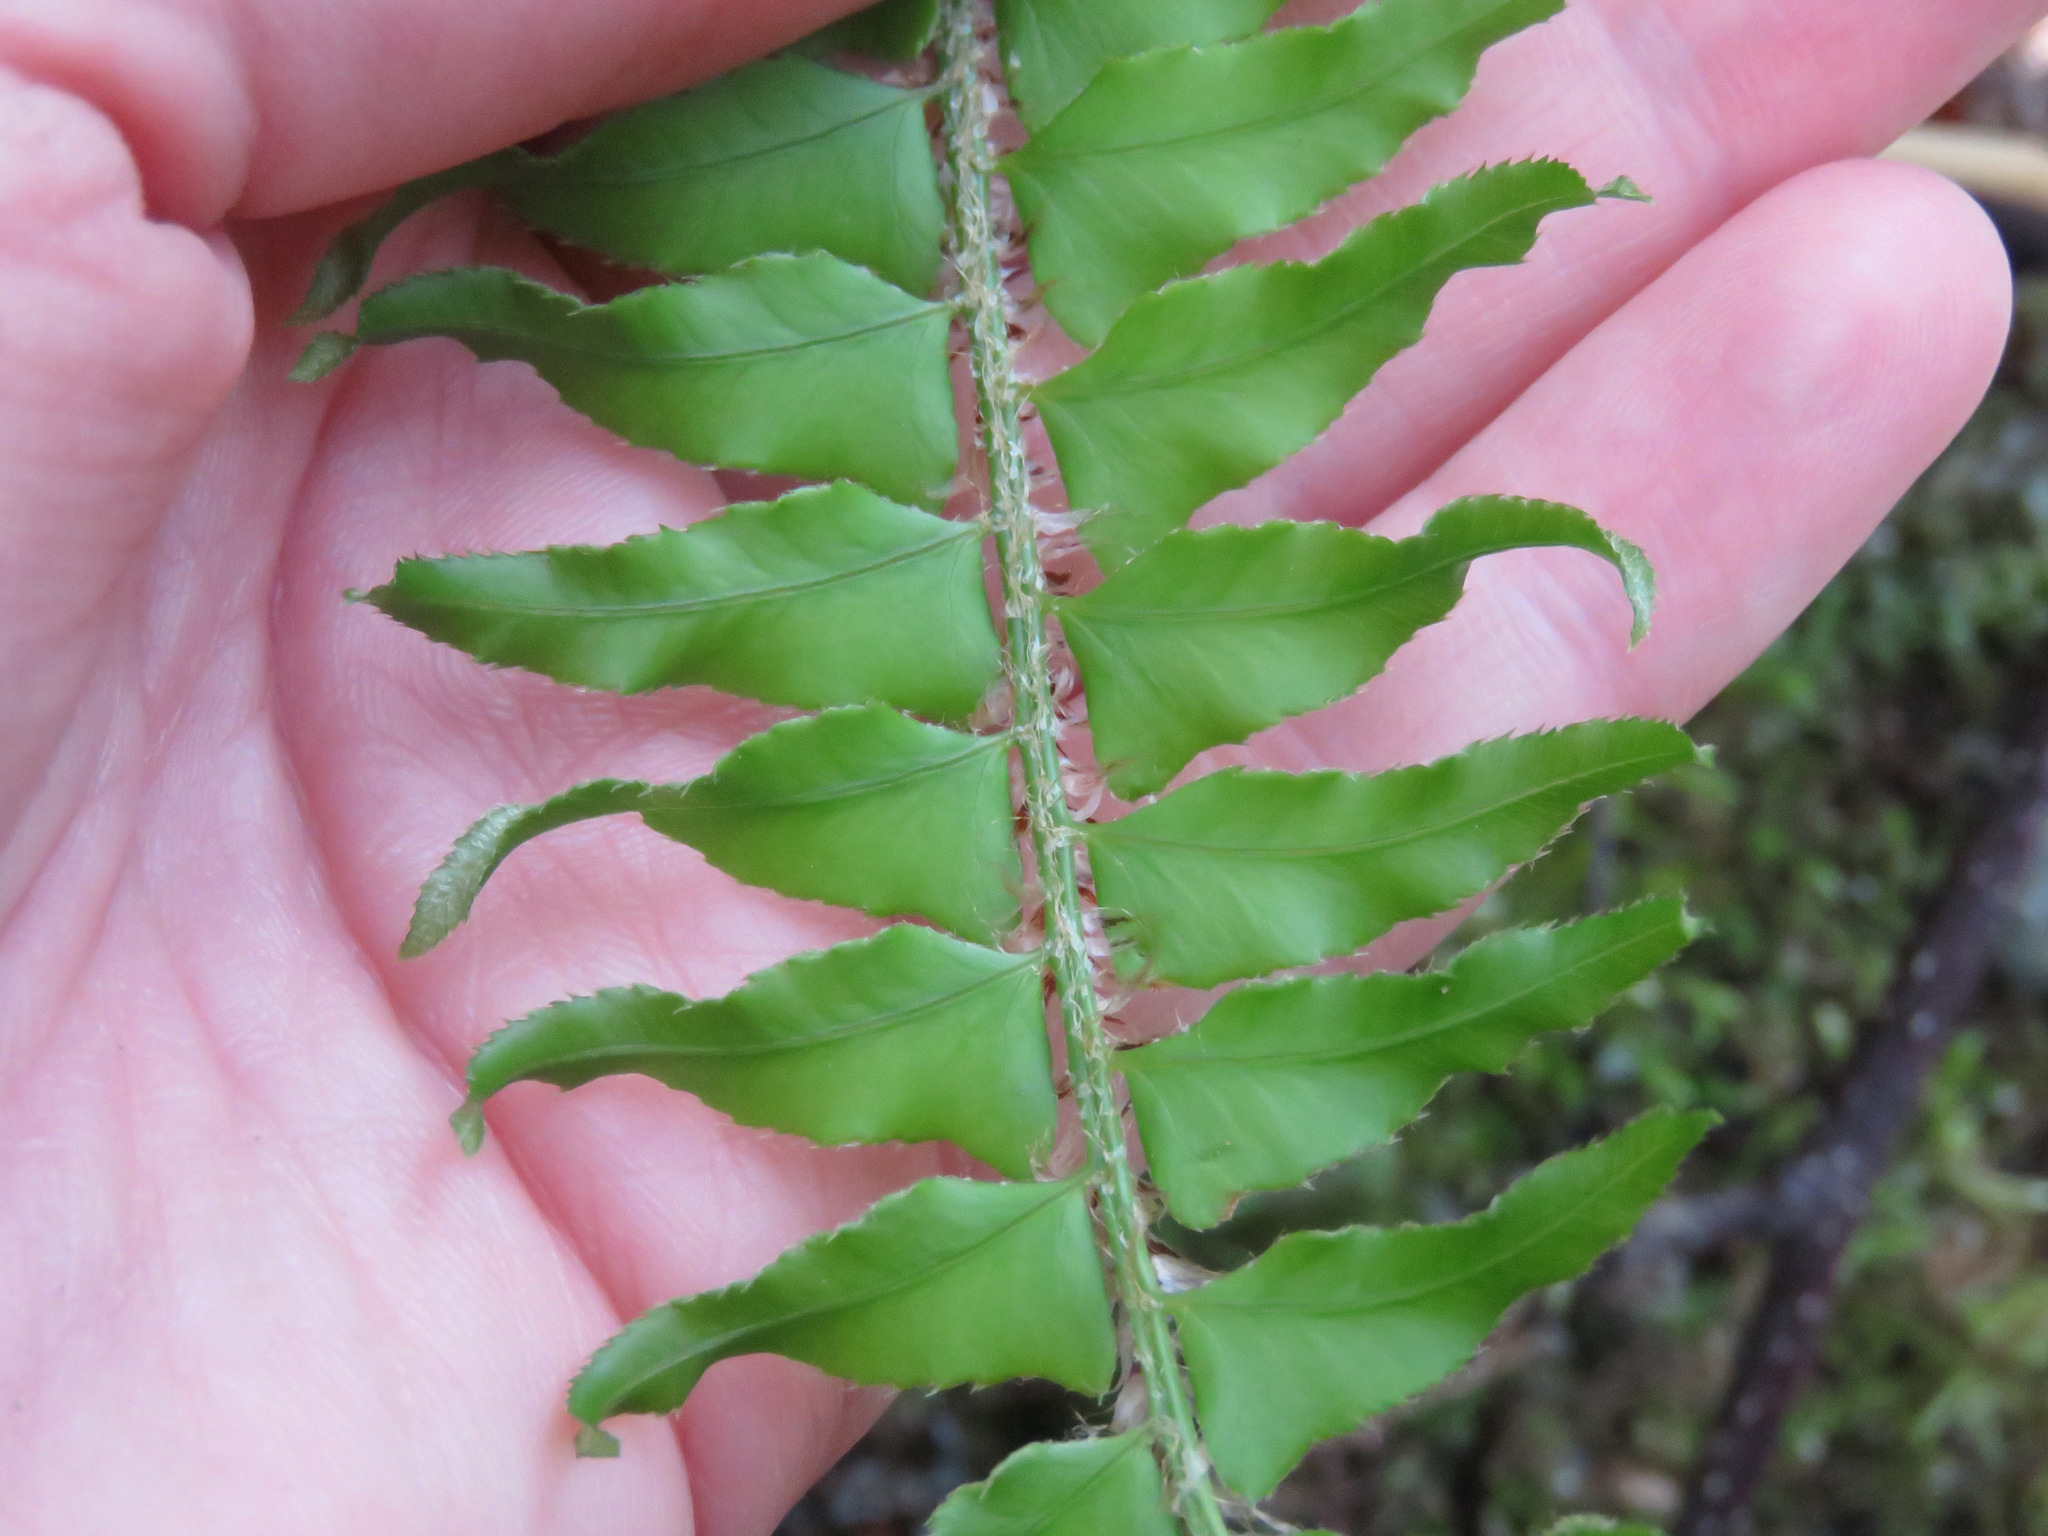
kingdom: Plantae
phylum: Tracheophyta
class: Polypodiopsida
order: Polypodiales
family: Dryopteridaceae
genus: Polystichum
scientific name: Polystichum munitum
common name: Western sword-fern
